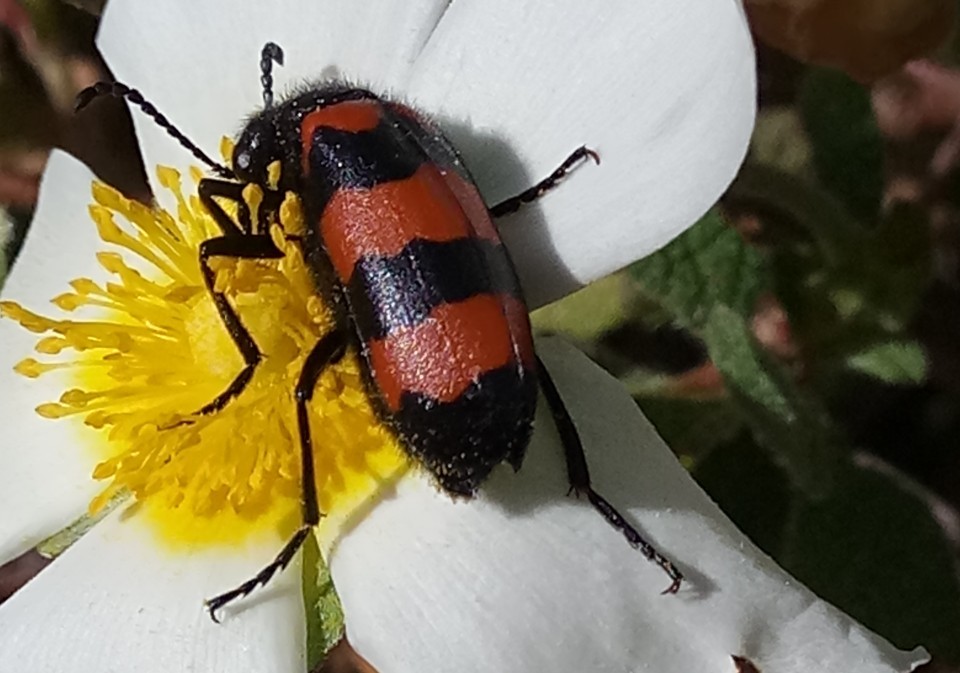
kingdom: Animalia
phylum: Arthropoda
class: Insecta
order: Coleoptera
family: Meloidae
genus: Mylabris
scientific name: Mylabris tricincta
